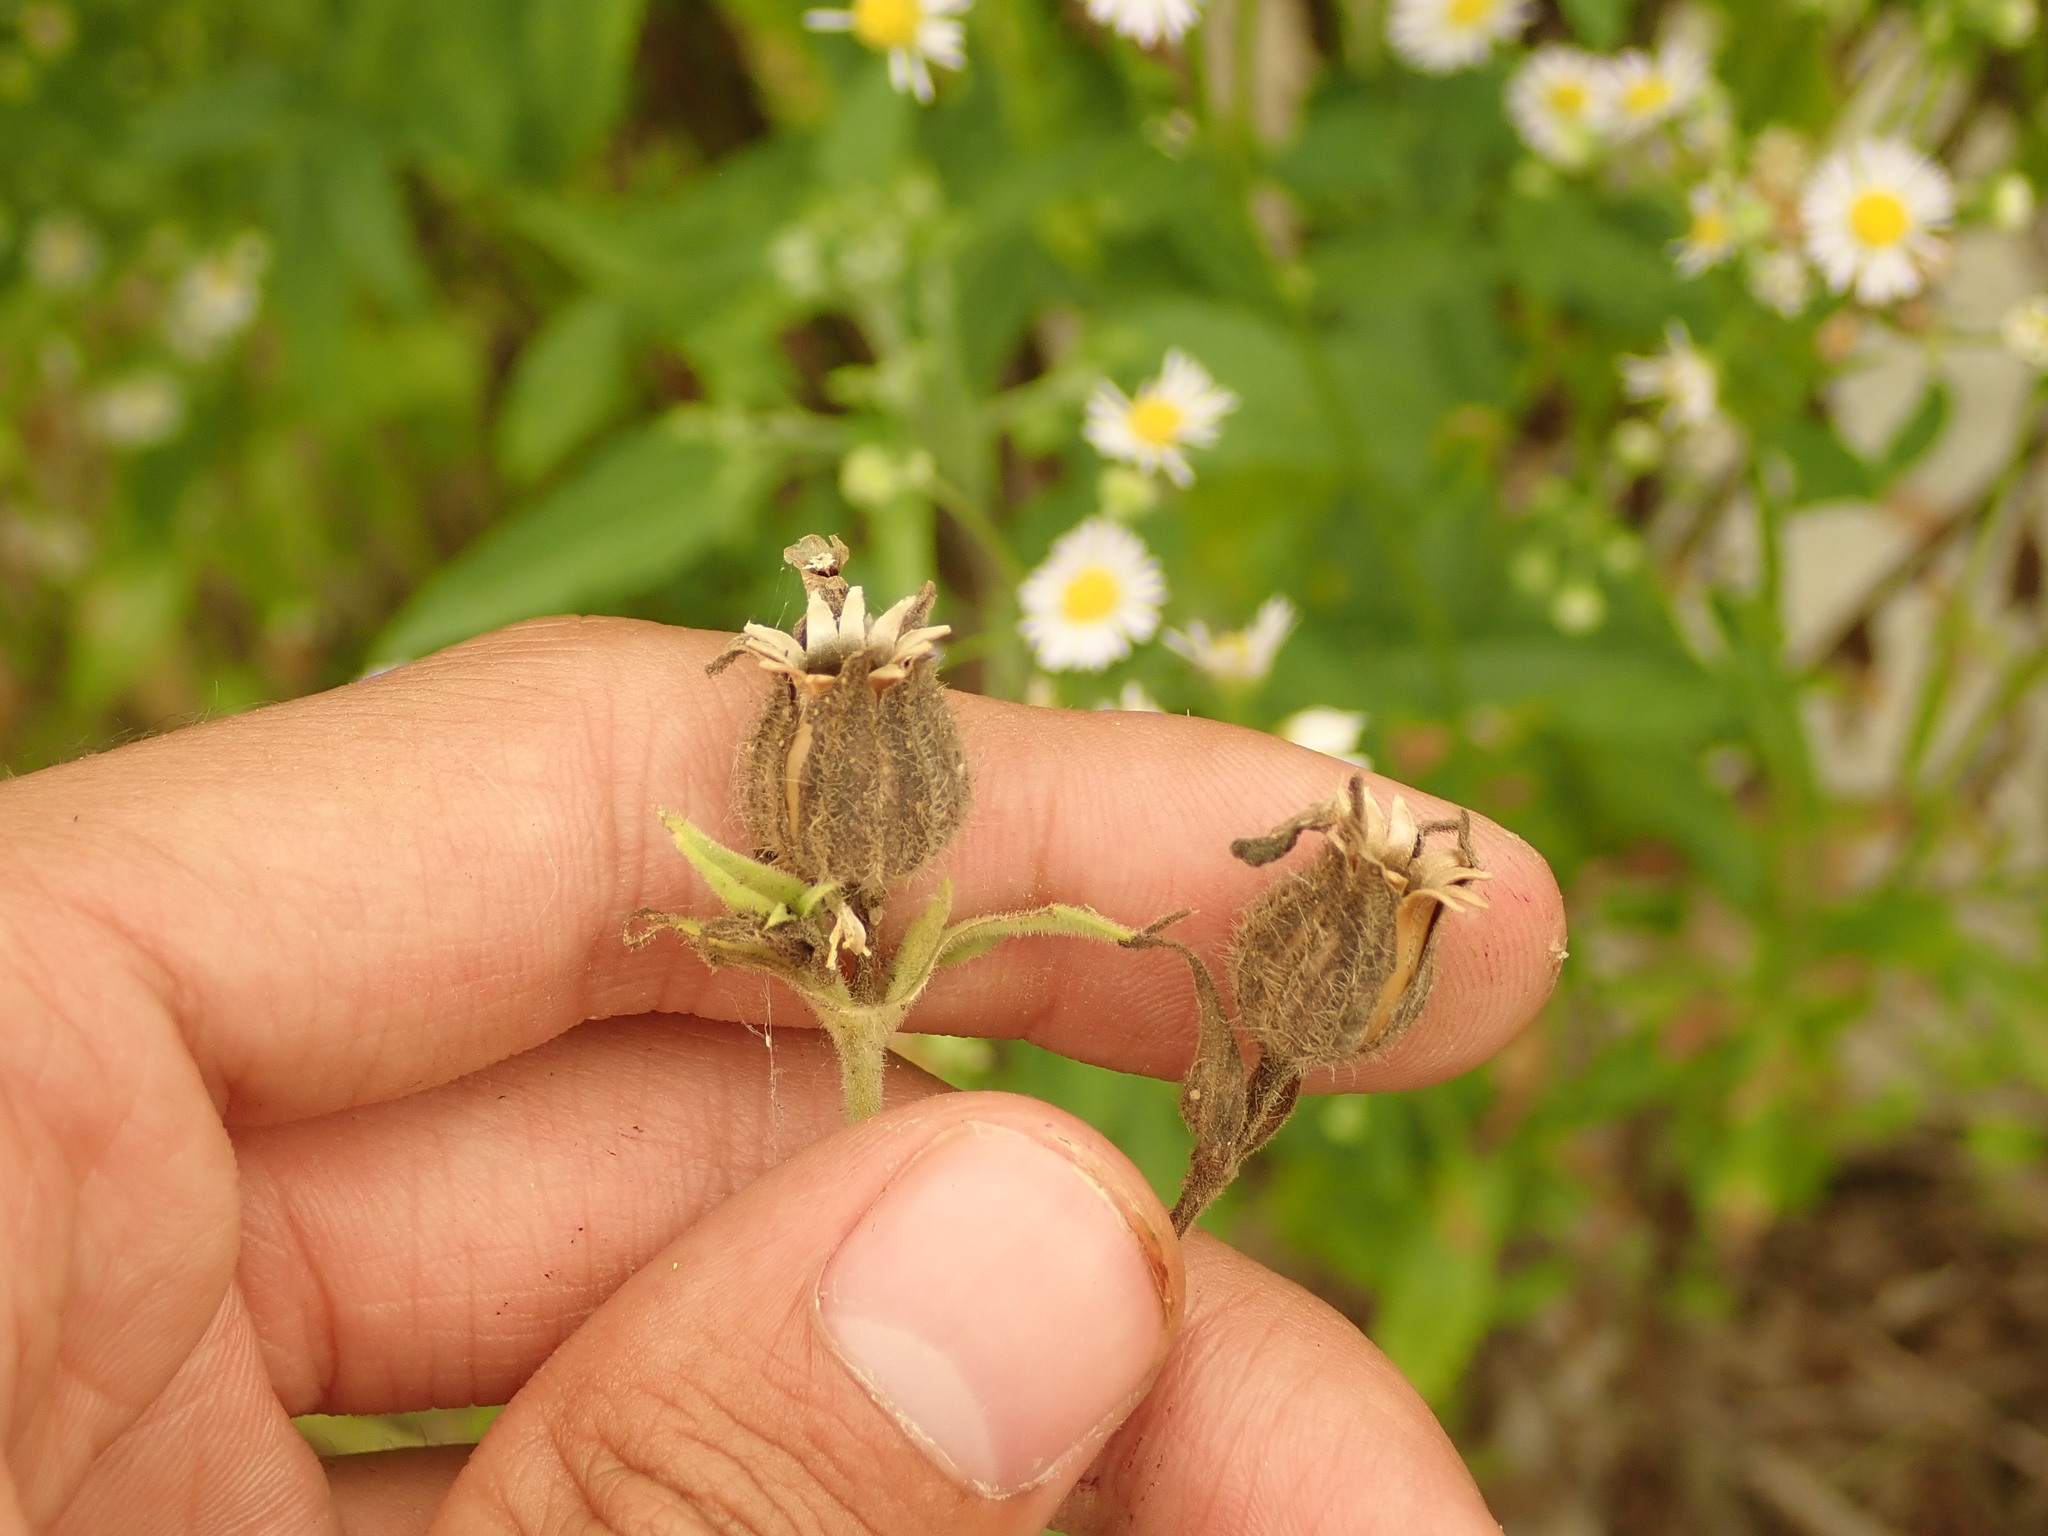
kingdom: Plantae
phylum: Tracheophyta
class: Magnoliopsida
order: Caryophyllales
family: Caryophyllaceae
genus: Silene
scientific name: Silene latifolia
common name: White campion
